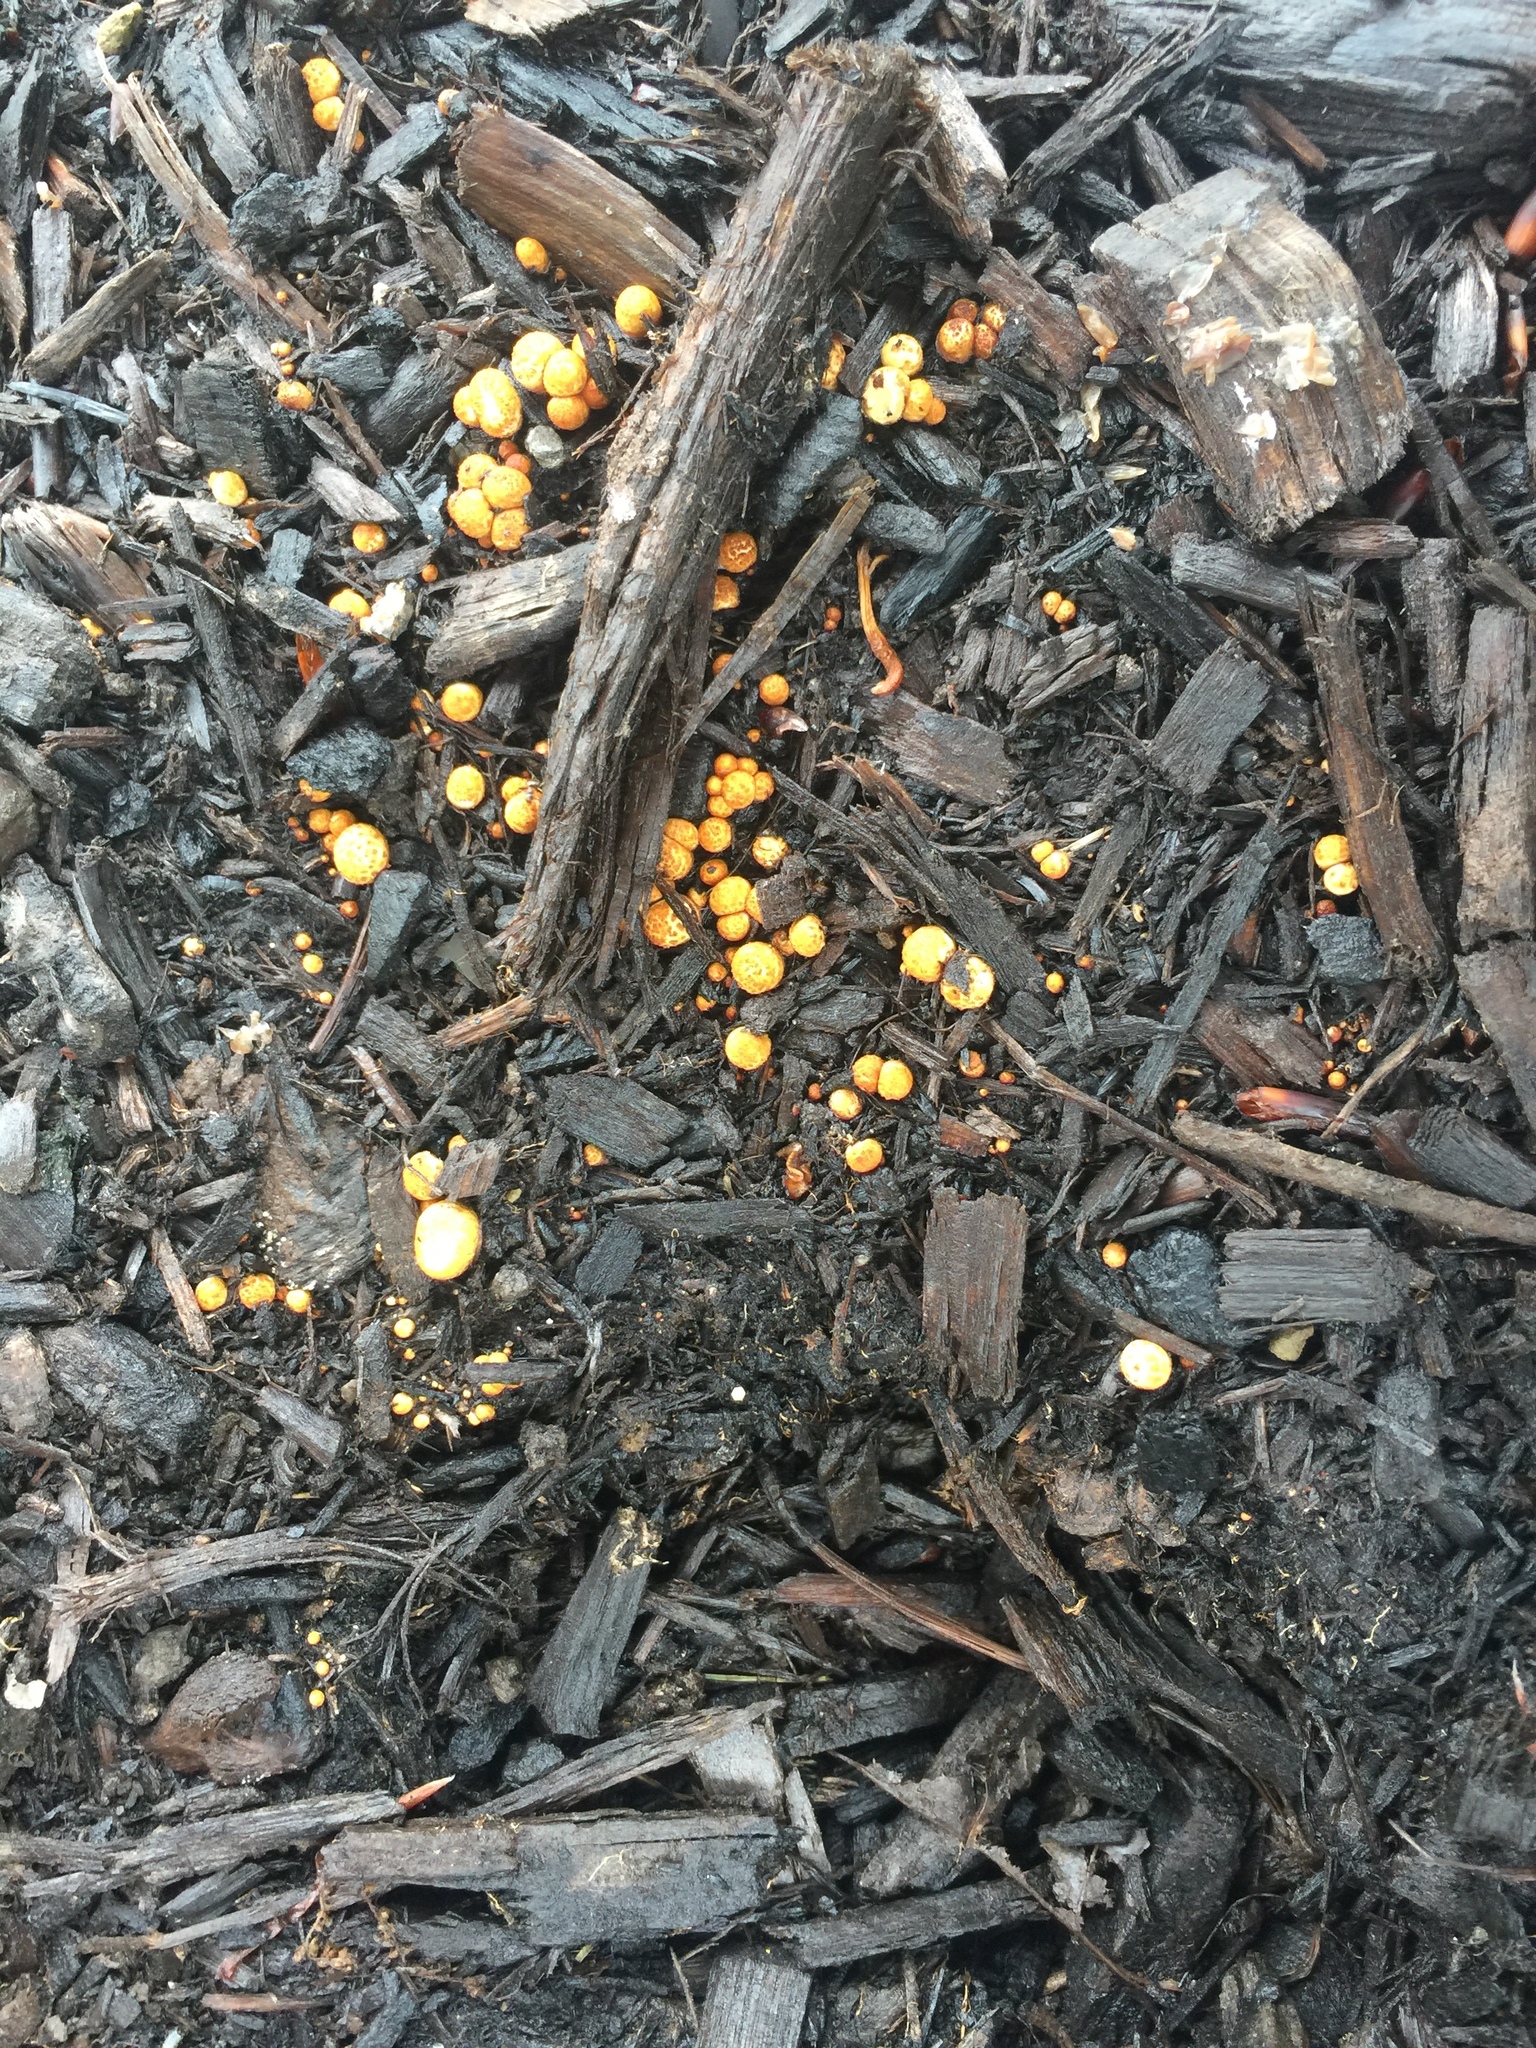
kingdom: Fungi
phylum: Basidiomycota
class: Agaricomycetes
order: Agaricales
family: Nidulariaceae
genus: Crucibulum
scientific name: Crucibulum laeve
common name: Common bird's nest
